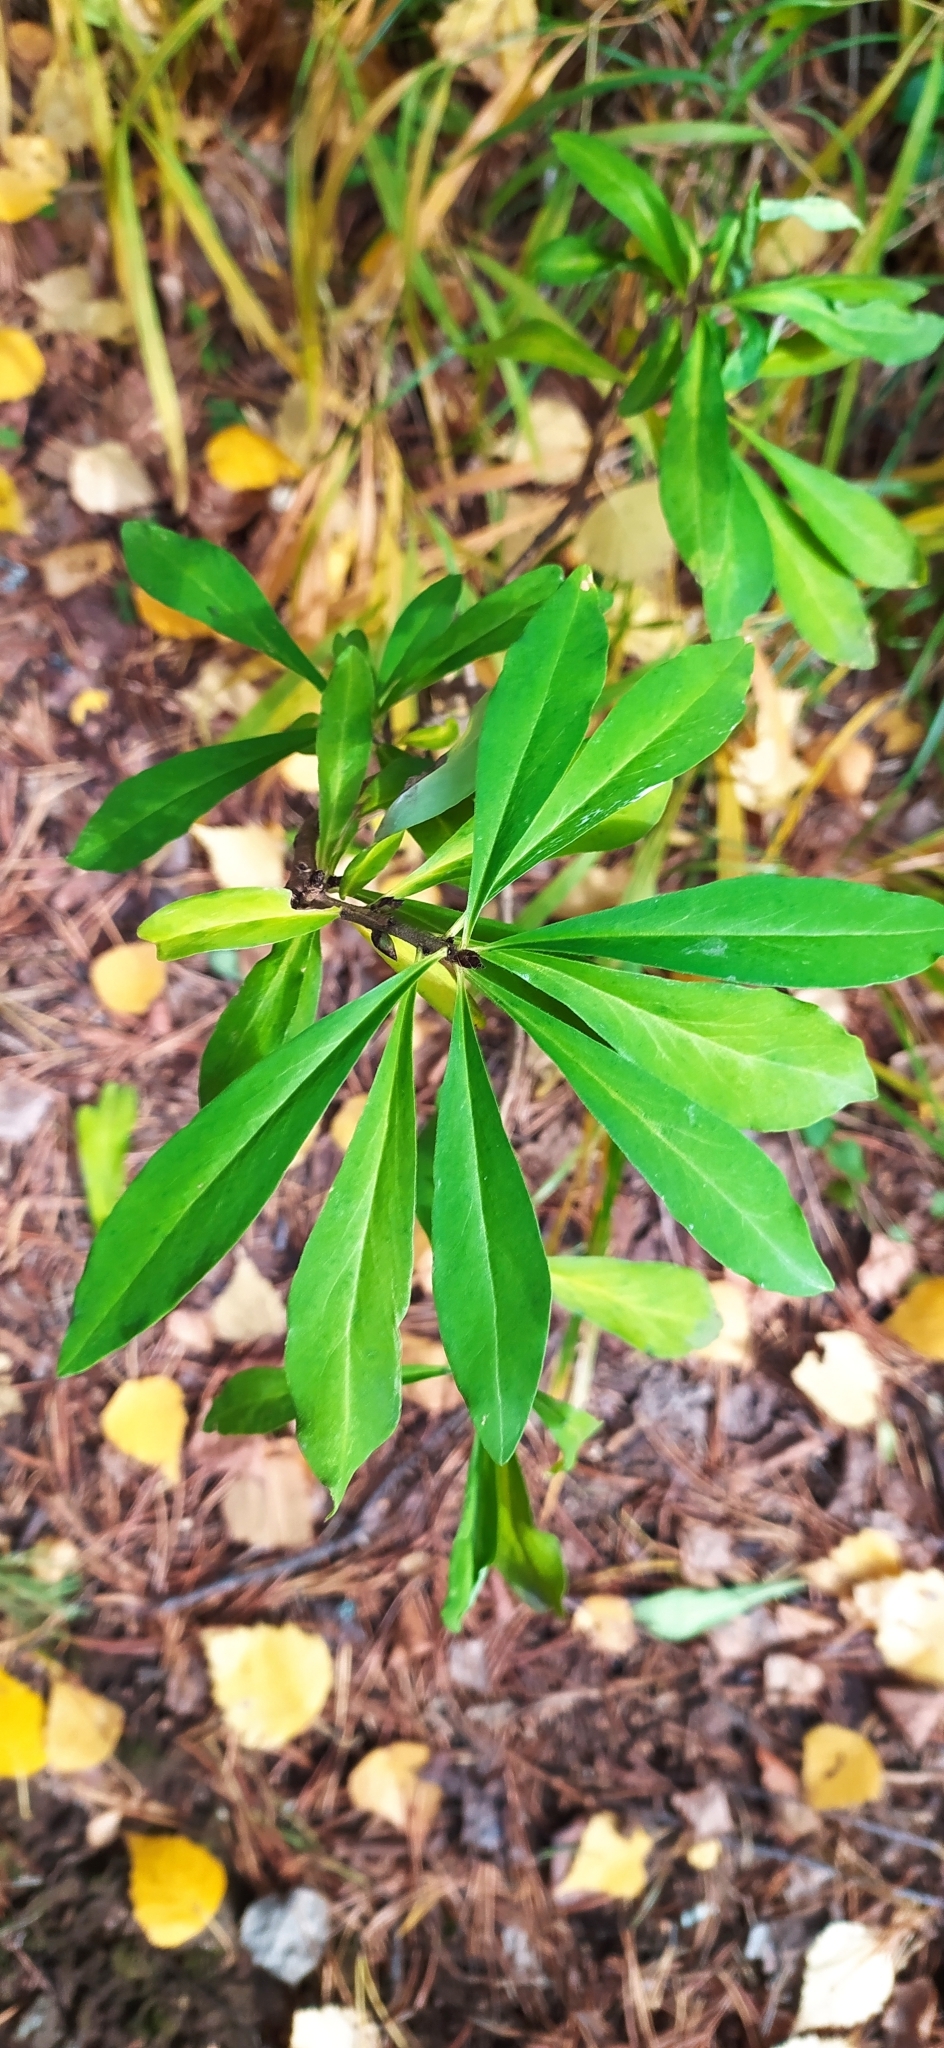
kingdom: Plantae
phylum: Tracheophyta
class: Magnoliopsida
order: Malvales
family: Thymelaeaceae
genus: Daphne
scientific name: Daphne mezereum
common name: Mezereon
